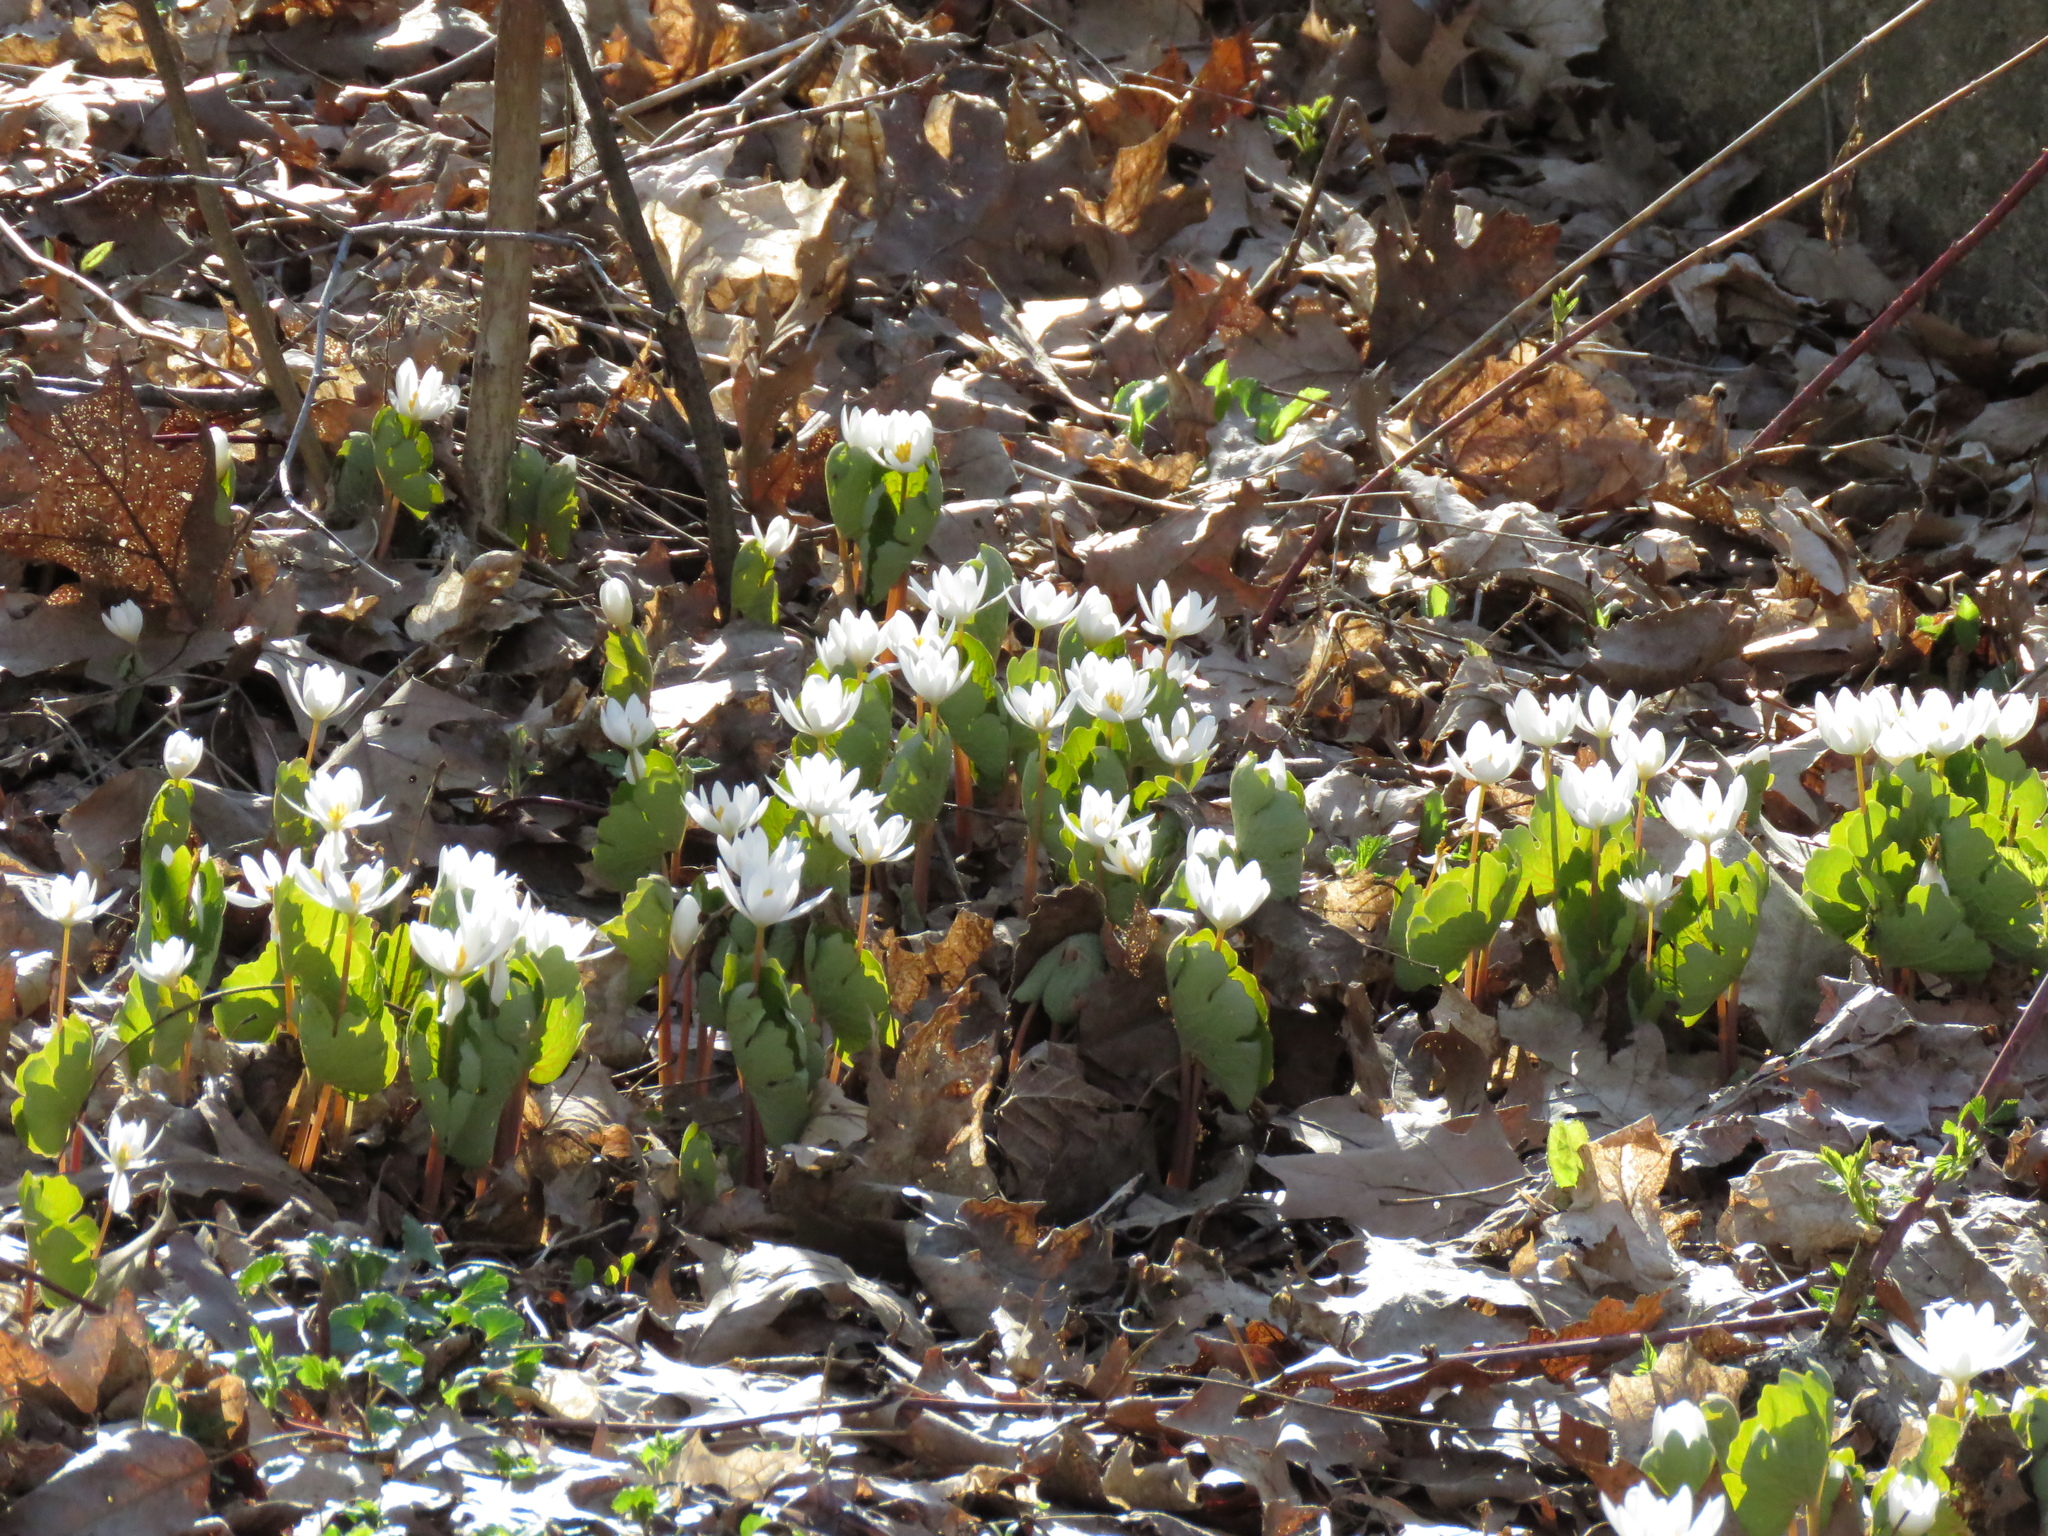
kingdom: Plantae
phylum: Tracheophyta
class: Magnoliopsida
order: Ranunculales
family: Papaveraceae
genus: Sanguinaria
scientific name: Sanguinaria canadensis
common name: Bloodroot
